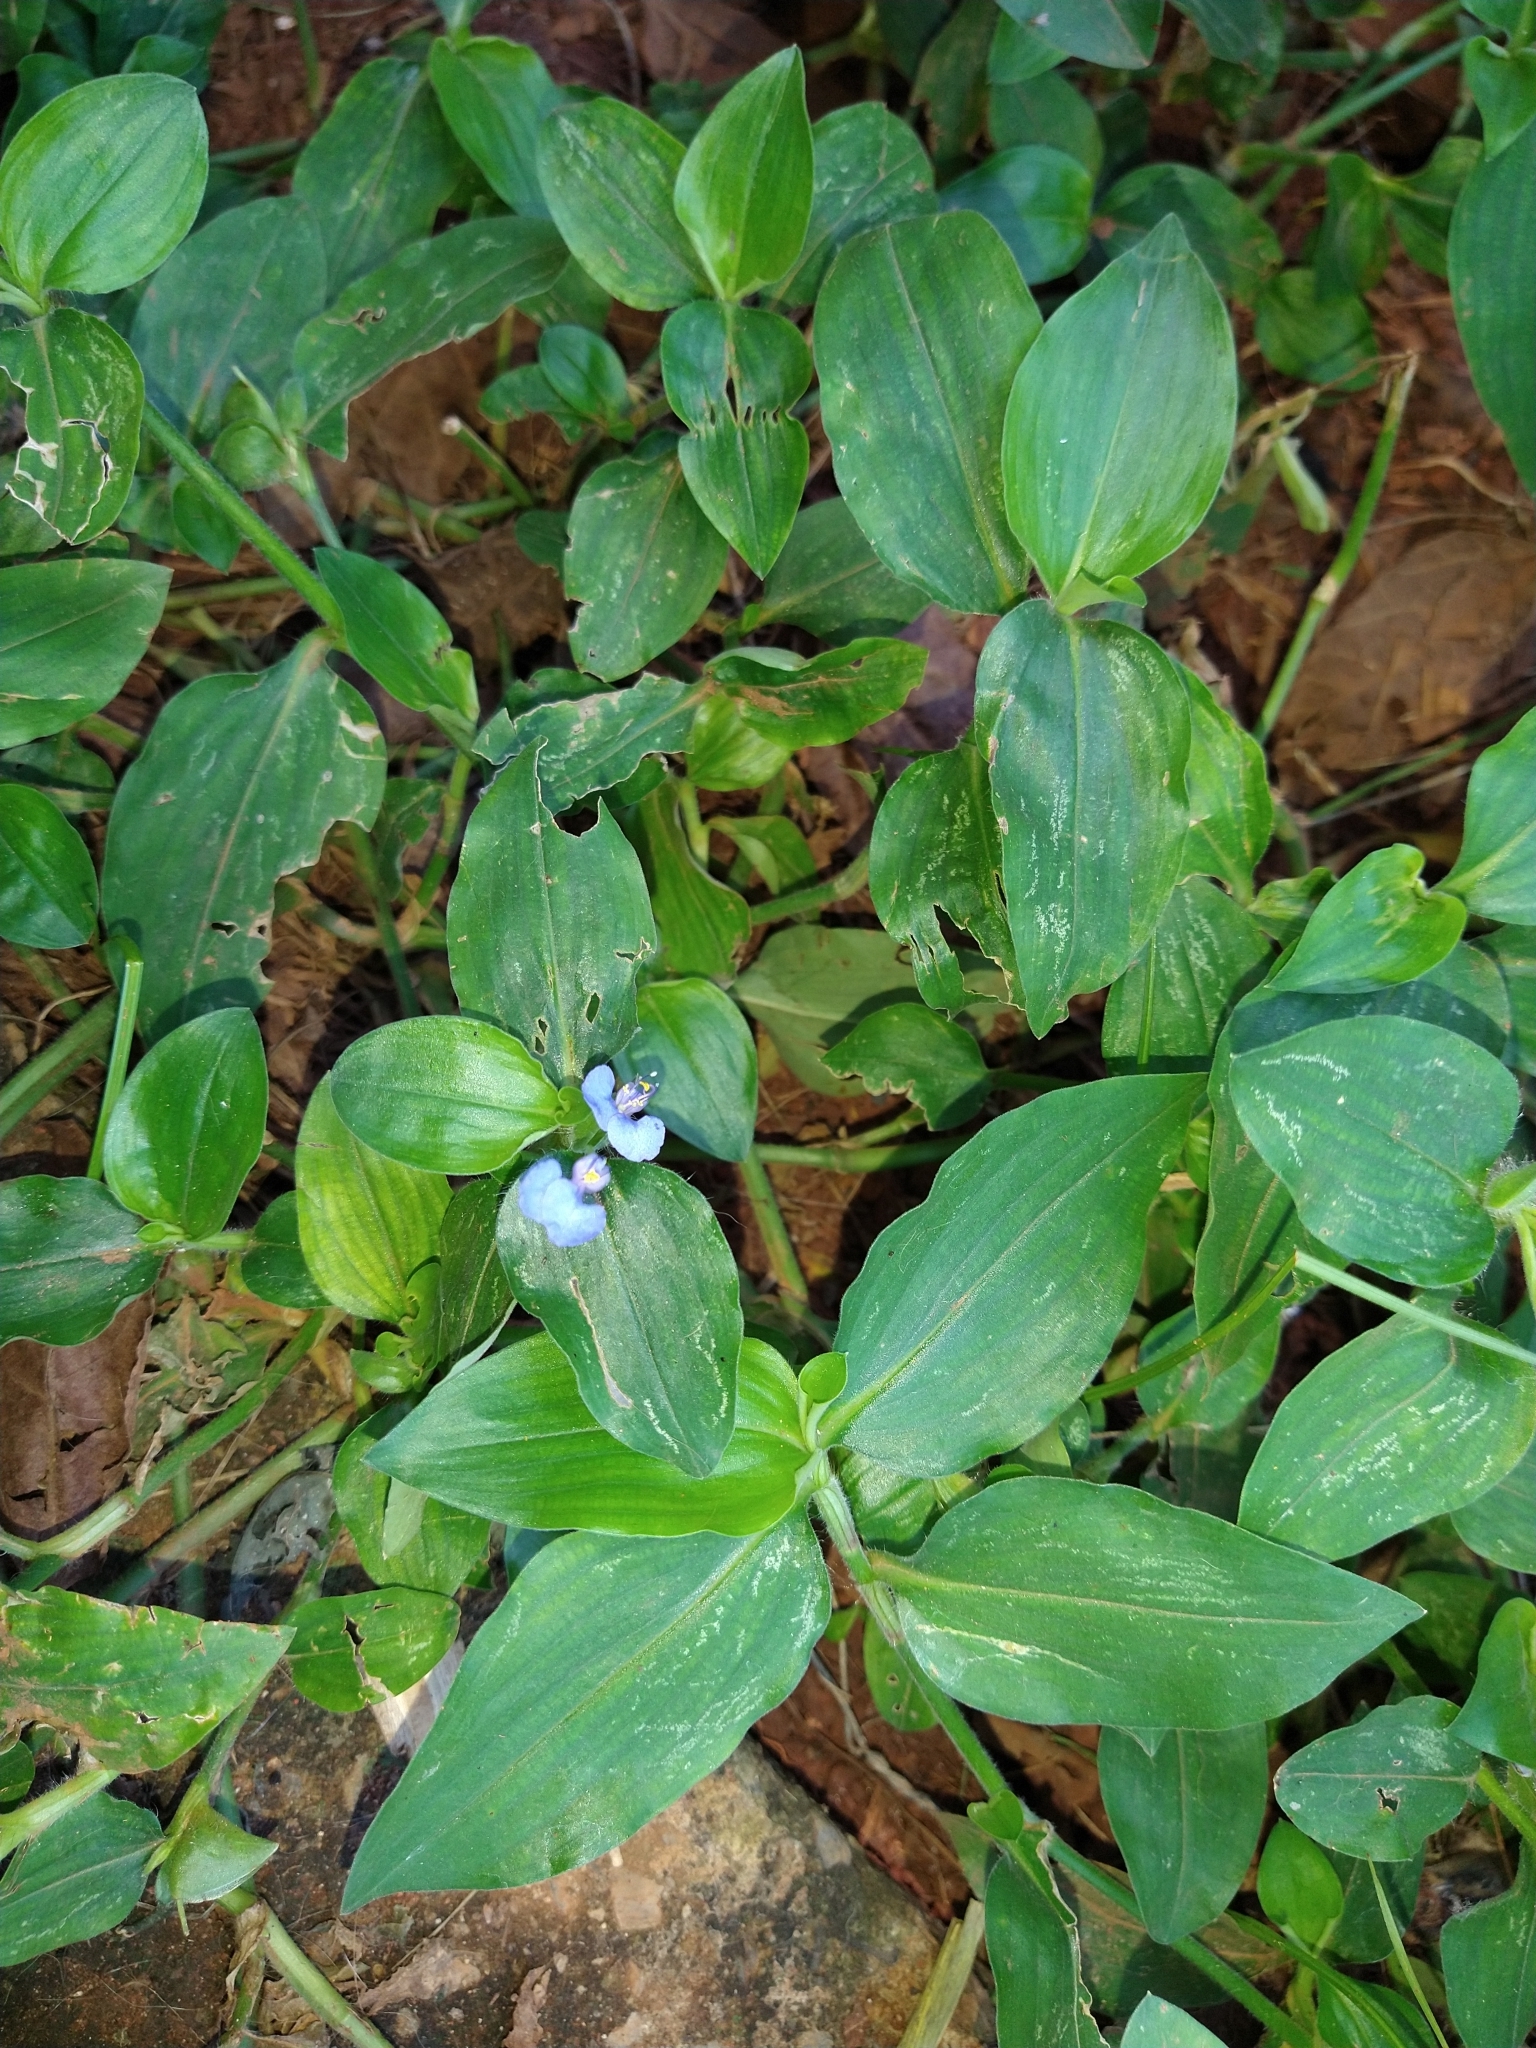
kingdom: Plantae
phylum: Tracheophyta
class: Liliopsida
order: Commelinales
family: Commelinaceae
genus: Commelina
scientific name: Commelina erecta
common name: Blousel blommetjie
